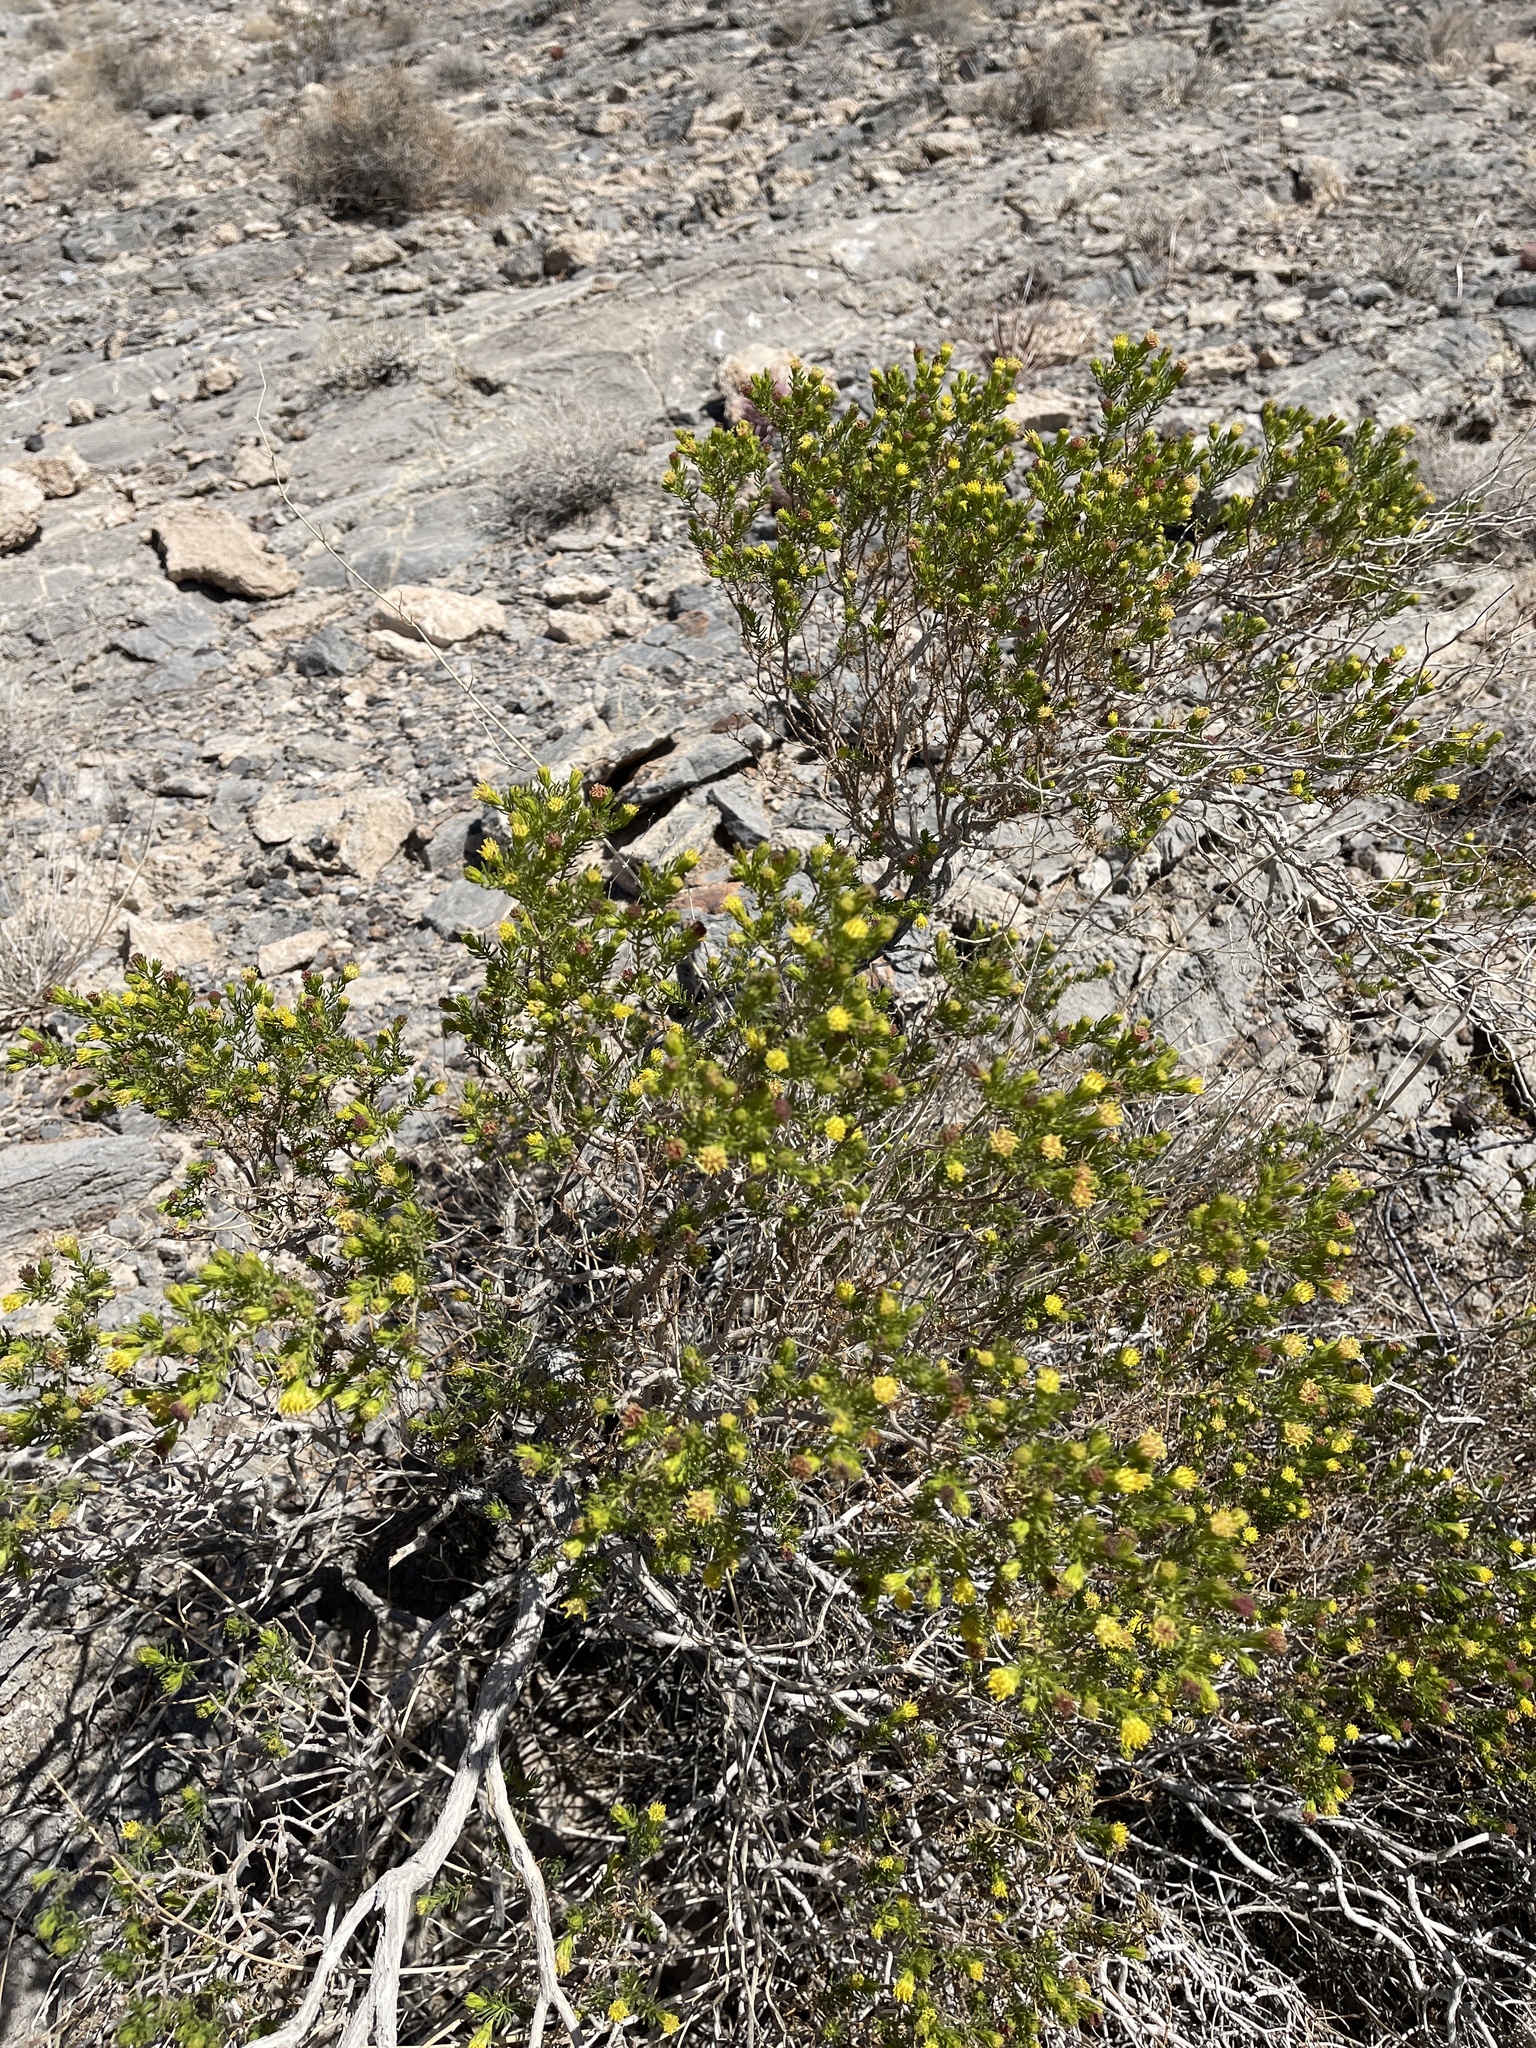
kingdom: Plantae
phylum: Tracheophyta
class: Magnoliopsida
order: Asterales
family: Asteraceae
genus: Peucephyllum
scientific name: Peucephyllum schottii
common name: Pygmy-cedar
